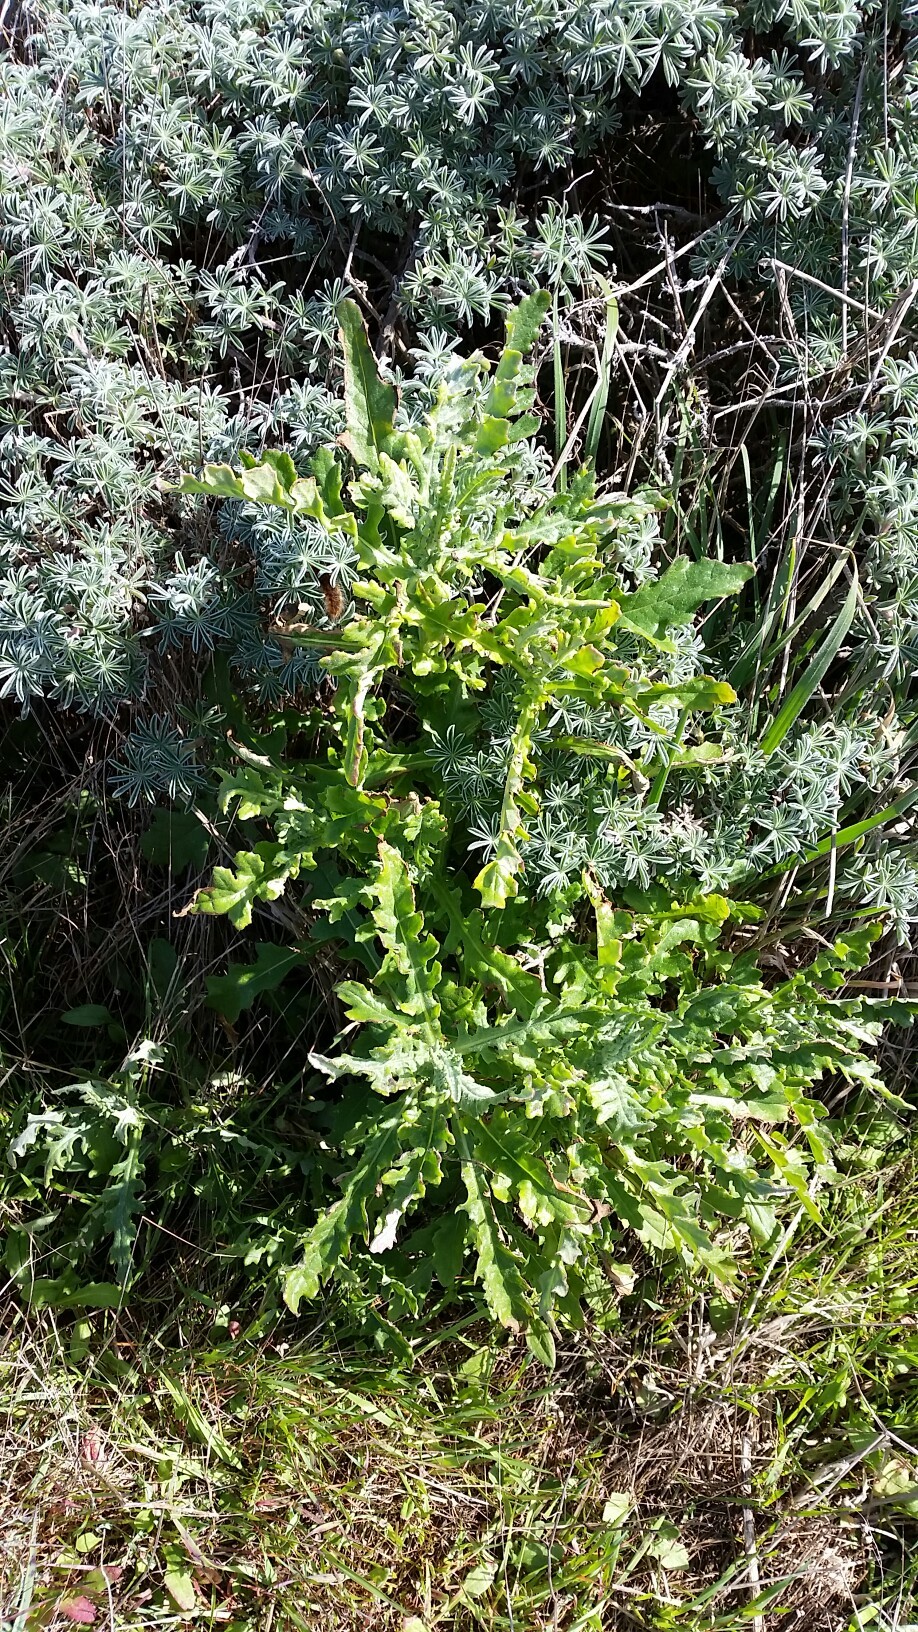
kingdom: Plantae
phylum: Tracheophyta
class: Magnoliopsida
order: Asterales
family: Asteraceae
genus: Senecio
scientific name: Senecio glomeratus
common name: Cutleaf burnweed
